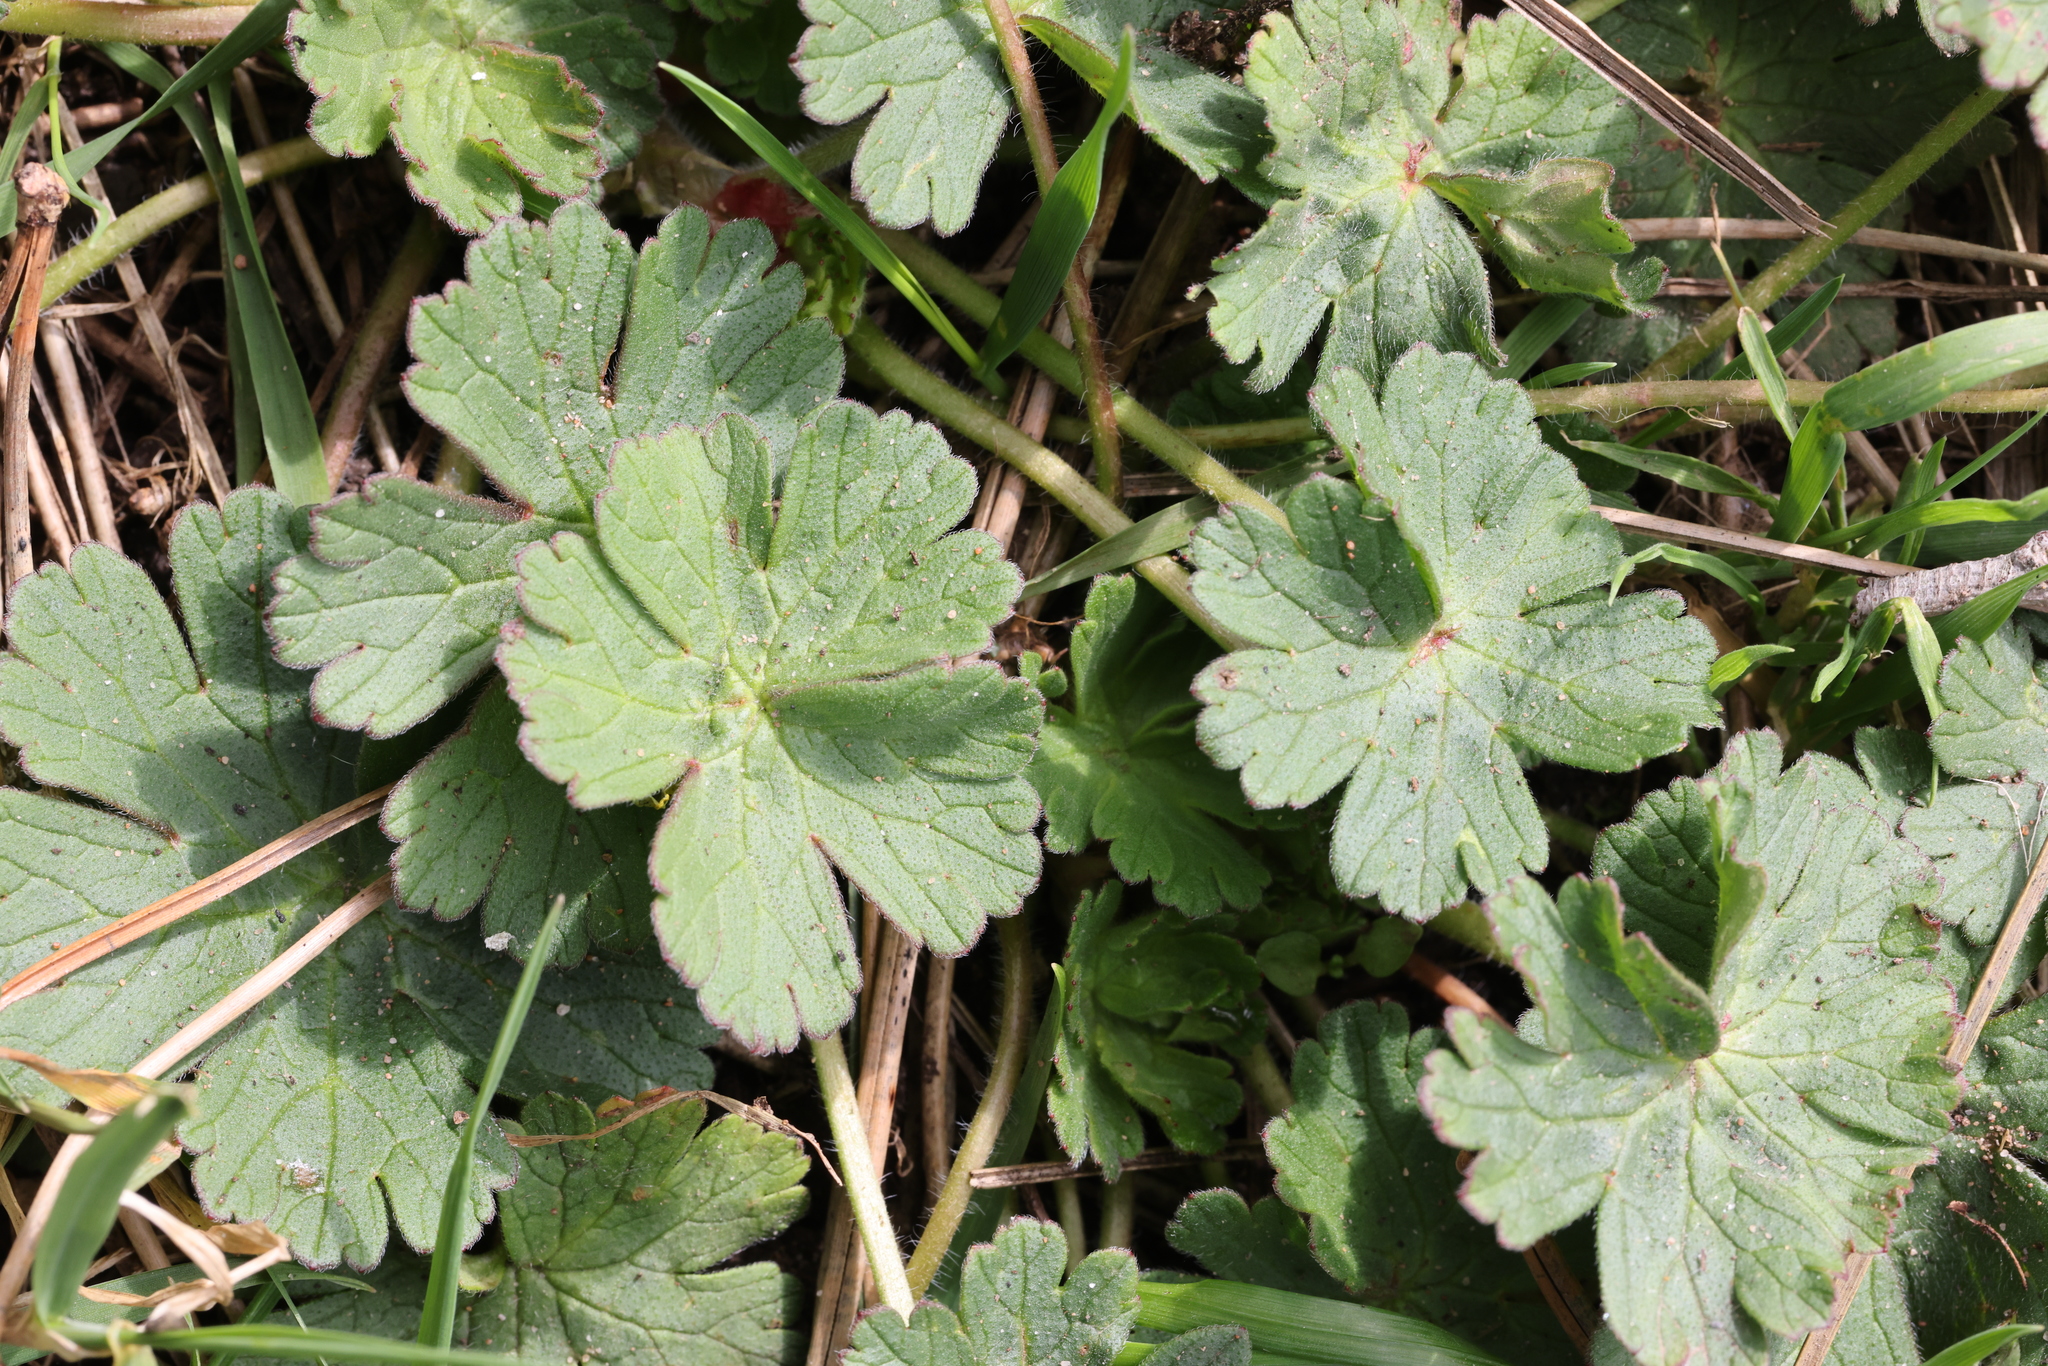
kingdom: Plantae
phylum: Tracheophyta
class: Magnoliopsida
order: Geraniales
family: Geraniaceae
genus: Geranium
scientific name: Geranium pyrenaicum
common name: Hedgerow crane's-bill
